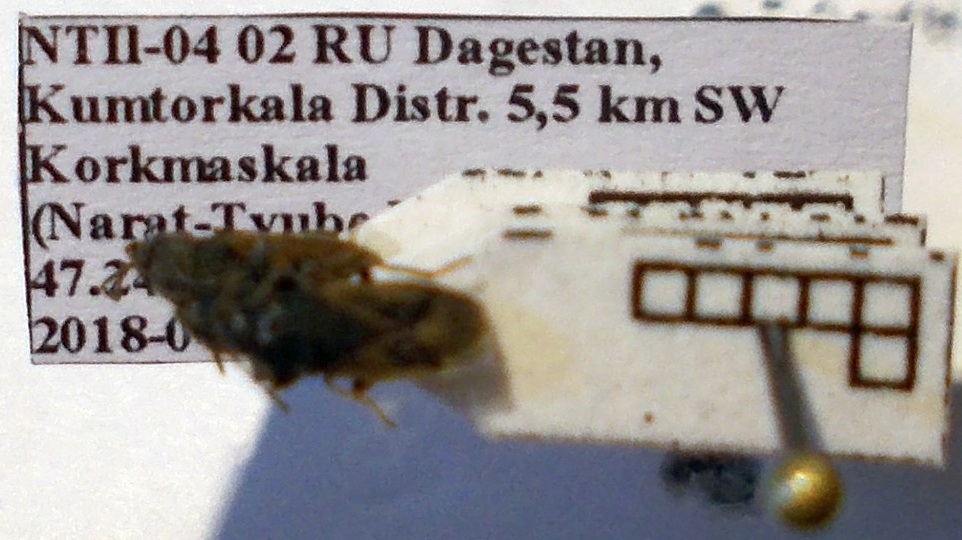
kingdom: Animalia
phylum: Arthropoda
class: Insecta
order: Hemiptera
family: Rhyparochromidae
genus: Megalonotus
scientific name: Megalonotus sabulicola
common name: Seed bug
